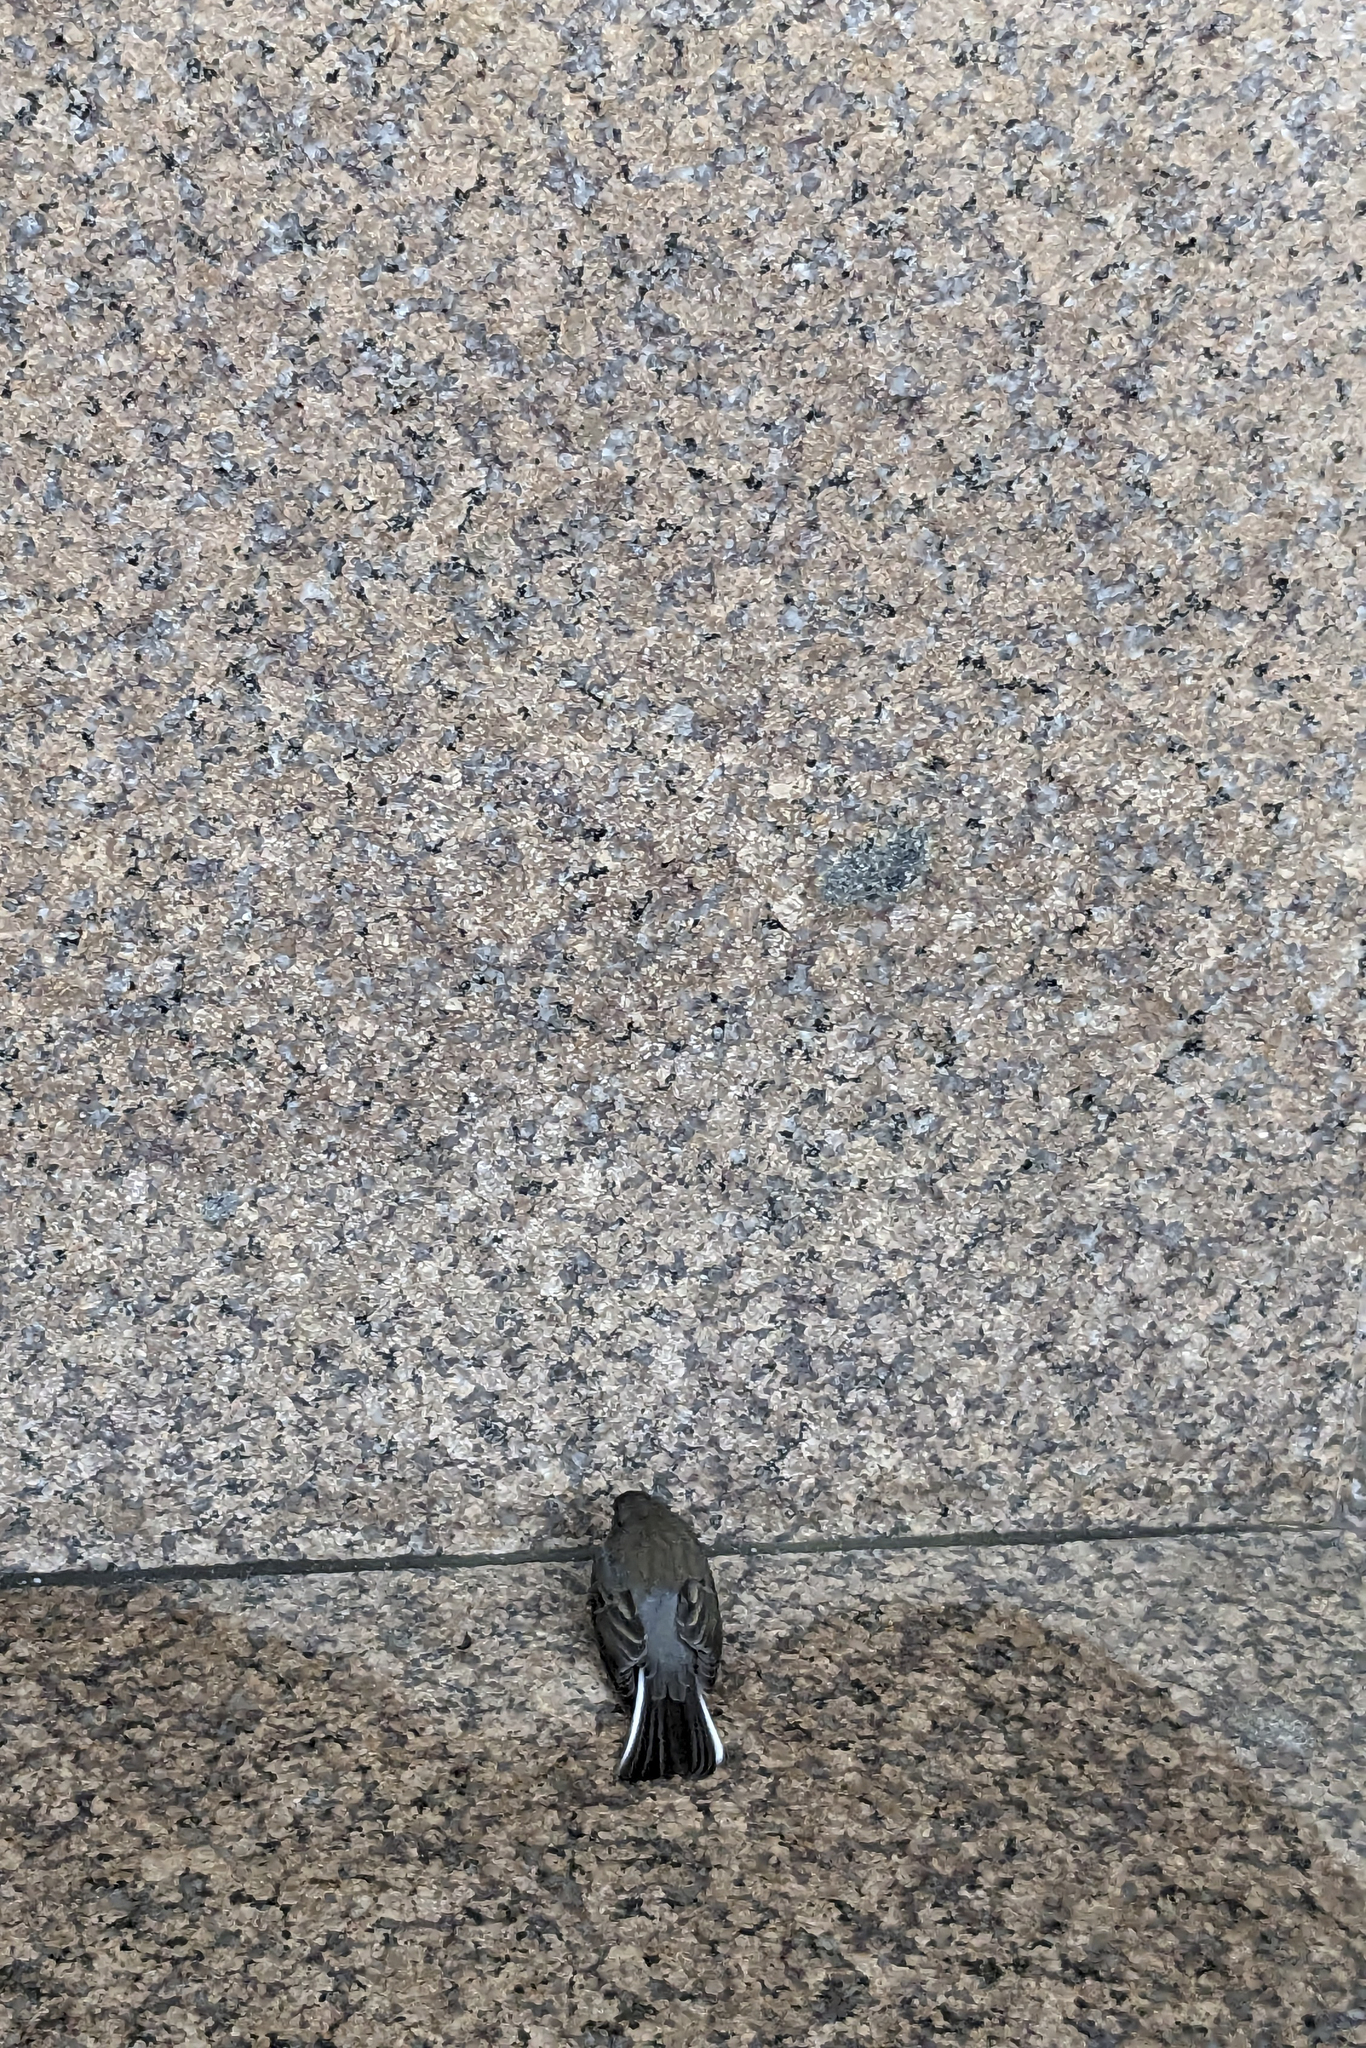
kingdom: Animalia
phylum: Chordata
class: Aves
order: Passeriformes
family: Passerellidae
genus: Junco
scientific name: Junco hyemalis
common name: Dark-eyed junco
